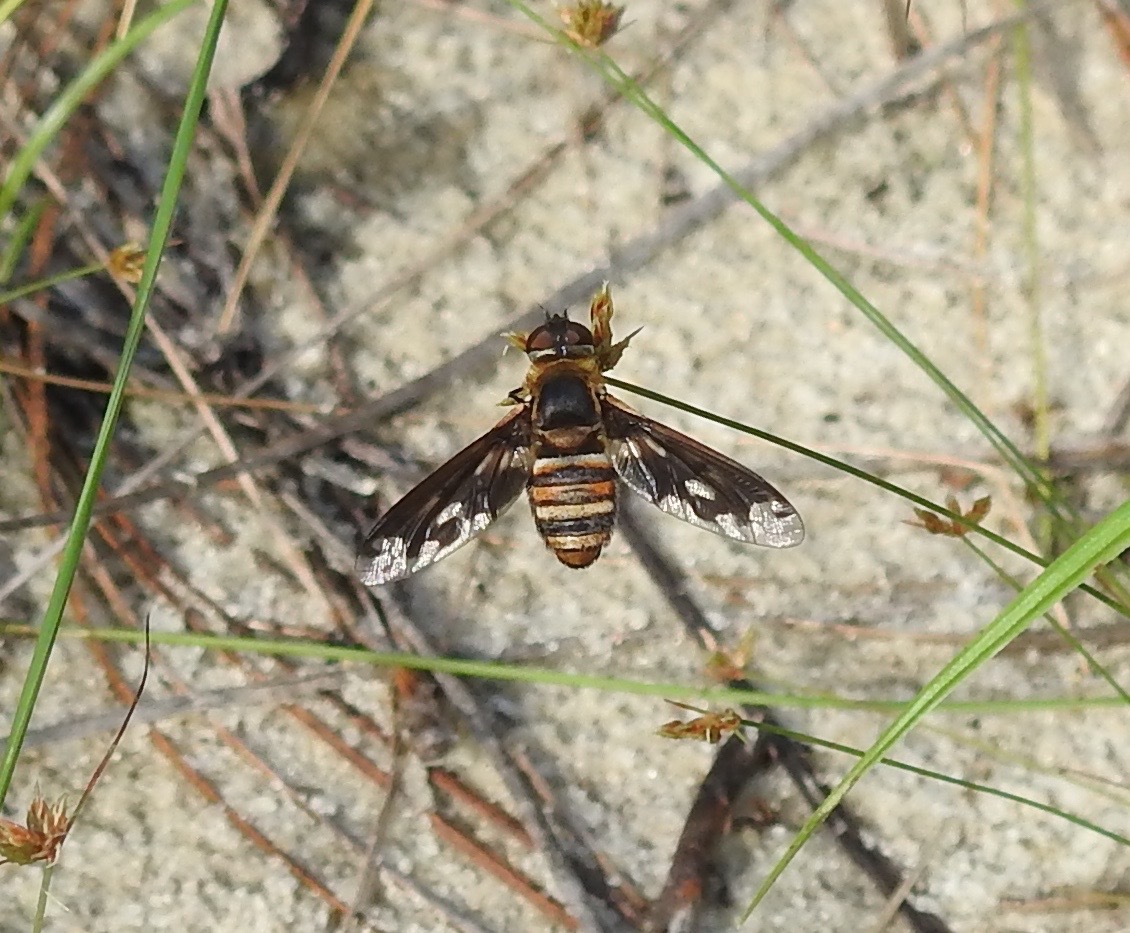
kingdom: Animalia
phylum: Arthropoda
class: Insecta
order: Diptera
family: Bombyliidae
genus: Exoprosopa
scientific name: Exoprosopa fascipennis
